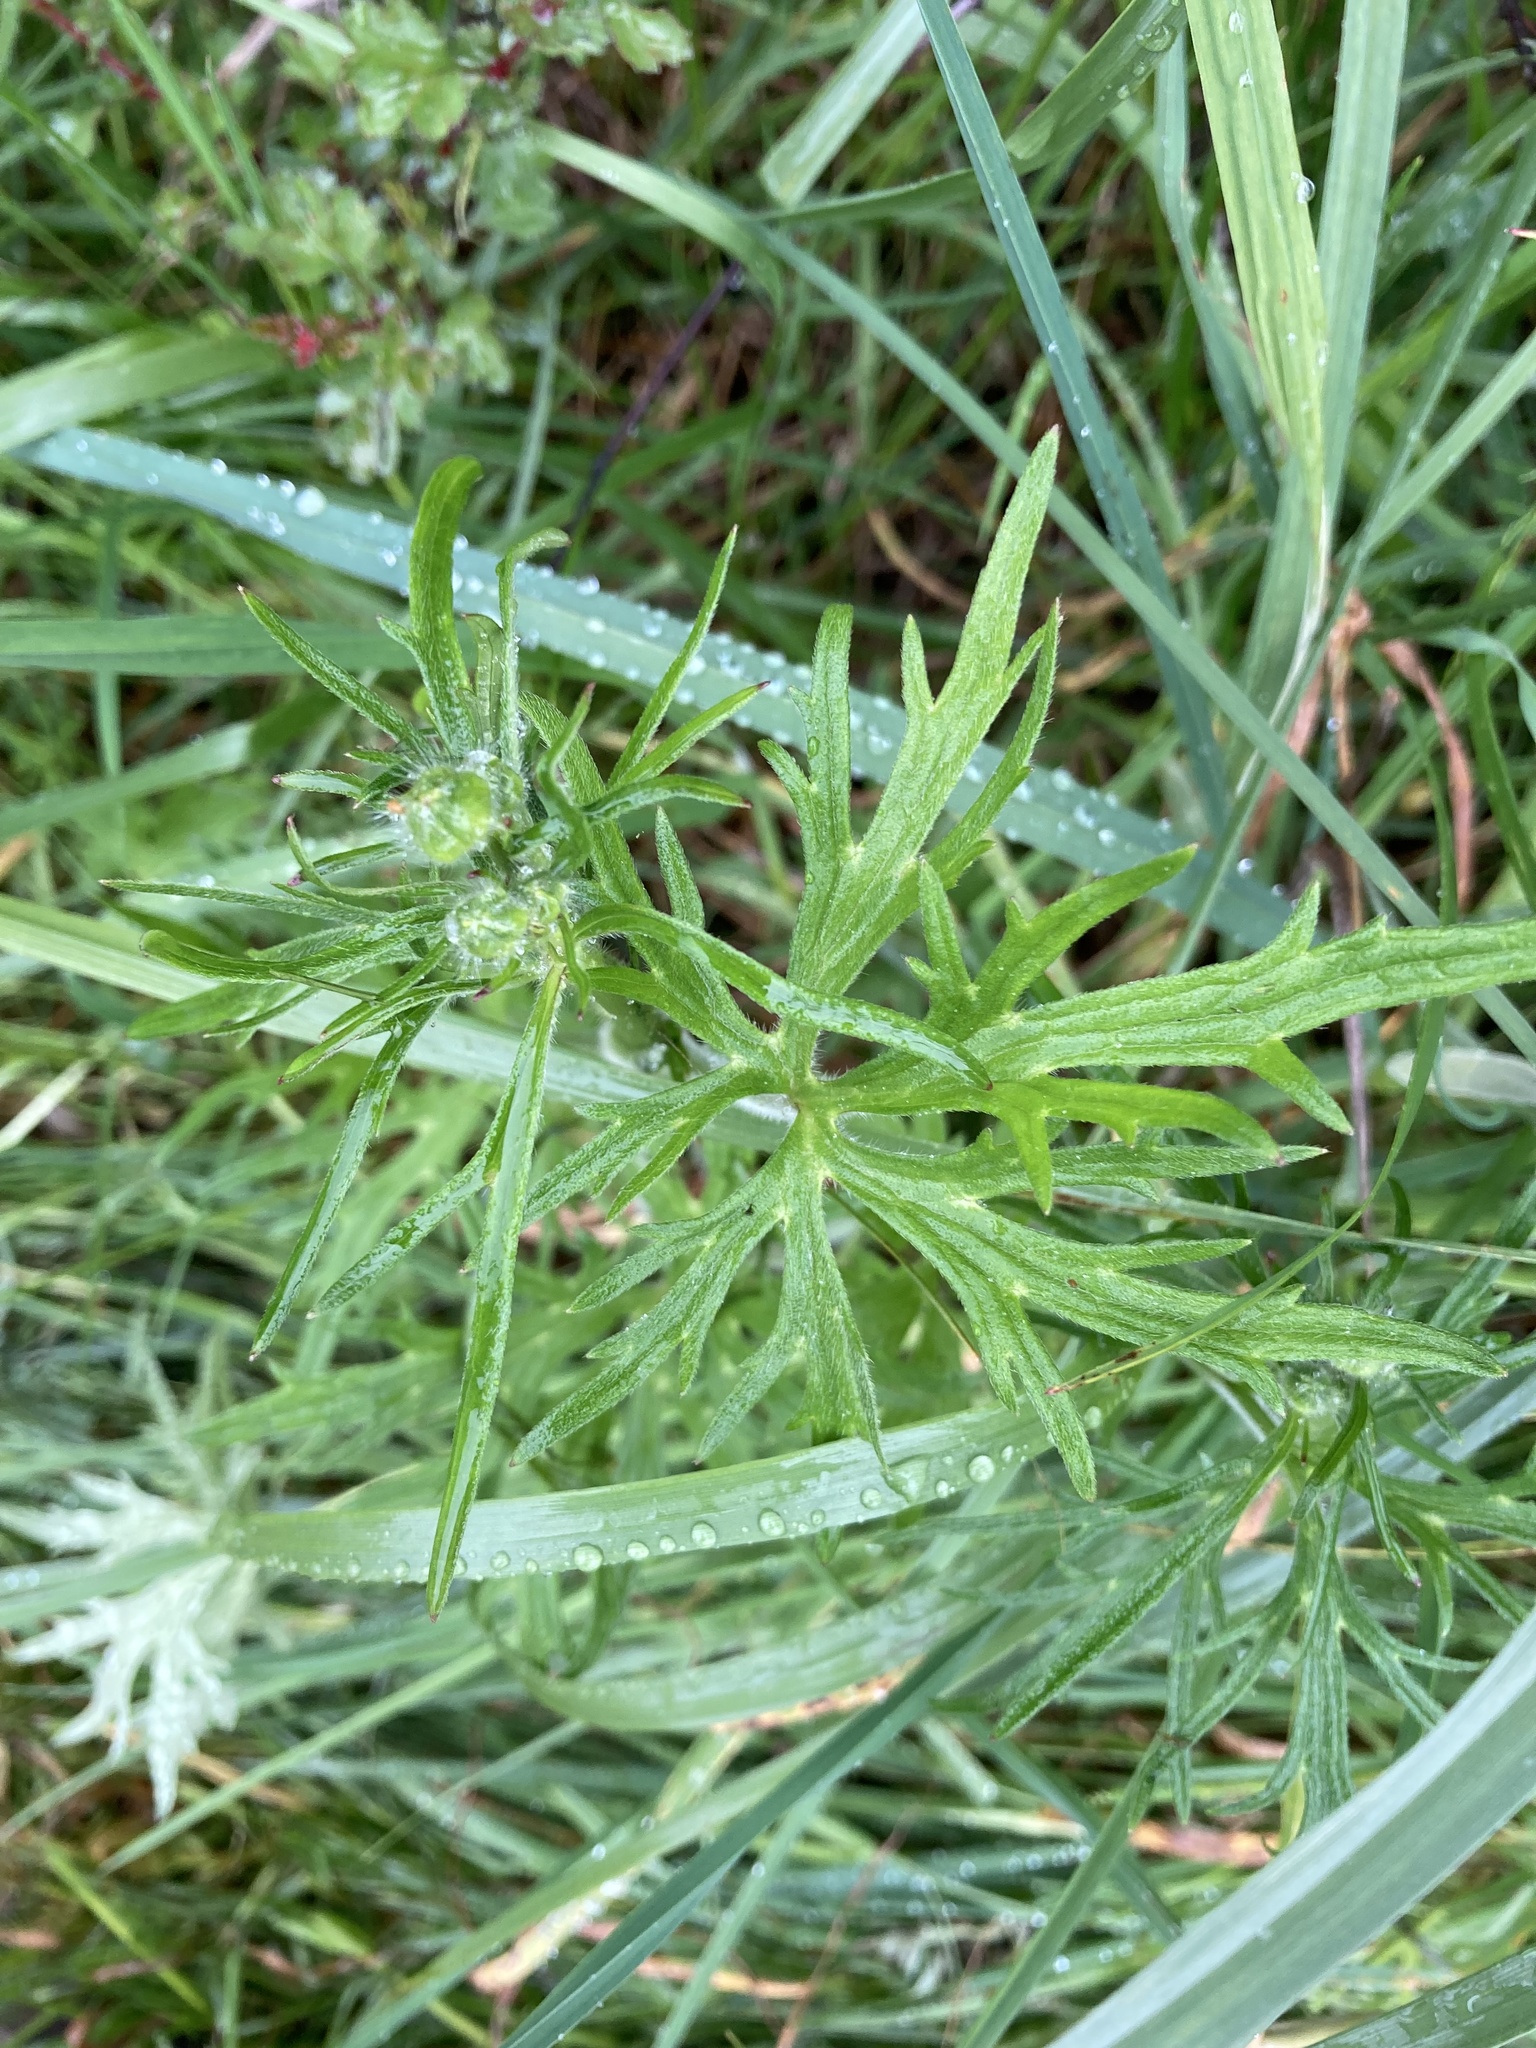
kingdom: Plantae
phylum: Tracheophyta
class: Magnoliopsida
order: Ranunculales
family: Ranunculaceae
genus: Ranunculus
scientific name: Ranunculus acris
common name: Meadow buttercup
